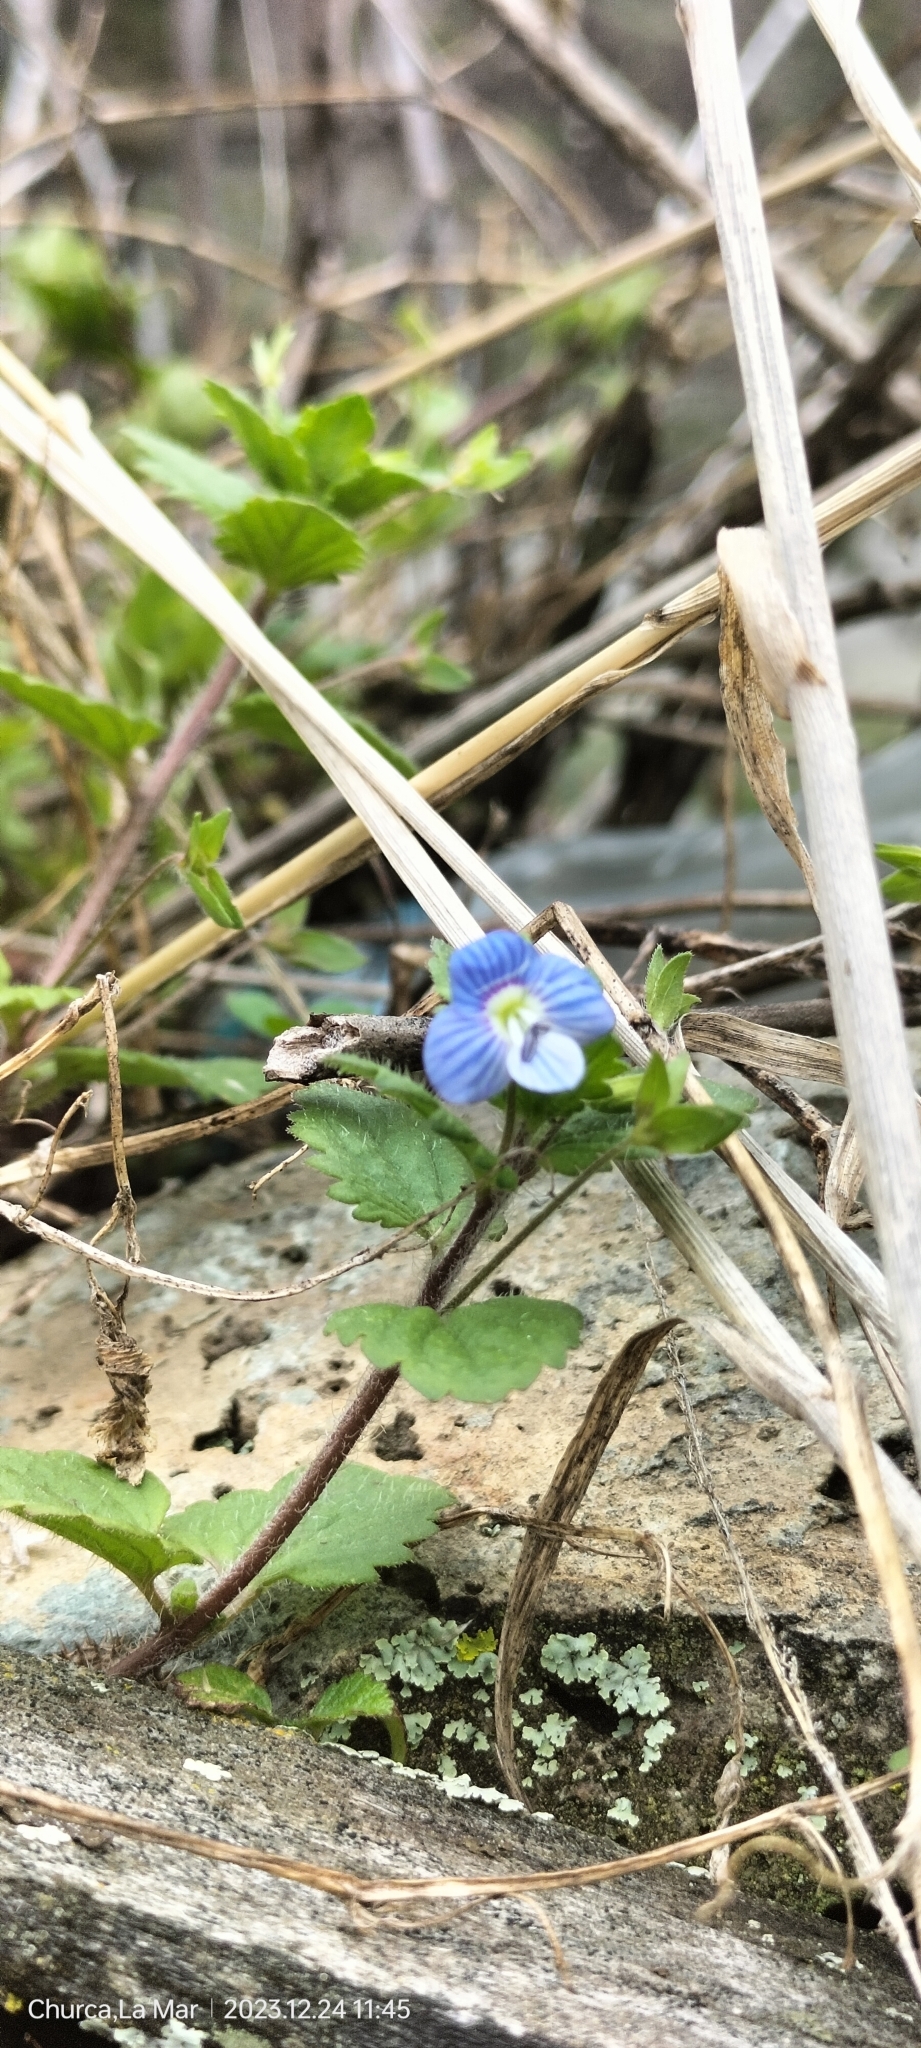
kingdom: Plantae
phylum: Tracheophyta
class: Magnoliopsida
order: Lamiales
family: Plantaginaceae
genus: Veronica
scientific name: Veronica persica
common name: Common field-speedwell
